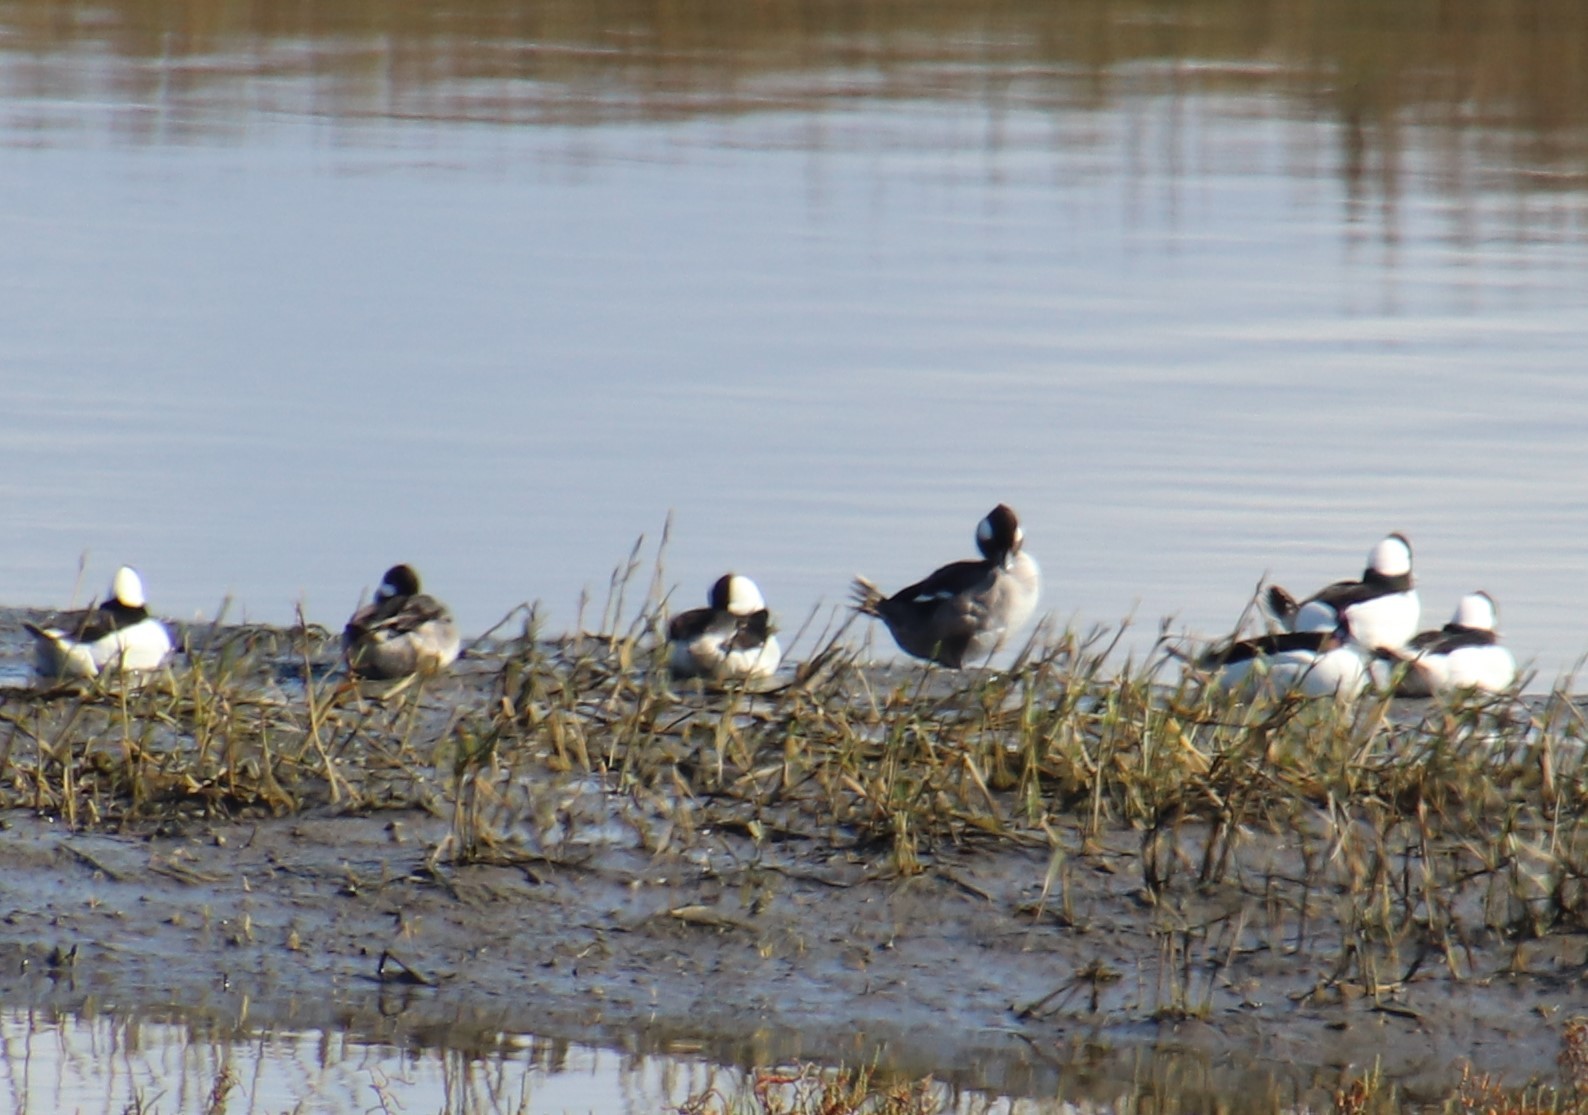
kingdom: Animalia
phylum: Chordata
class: Aves
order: Anseriformes
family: Anatidae
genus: Bucephala
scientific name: Bucephala albeola
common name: Bufflehead
